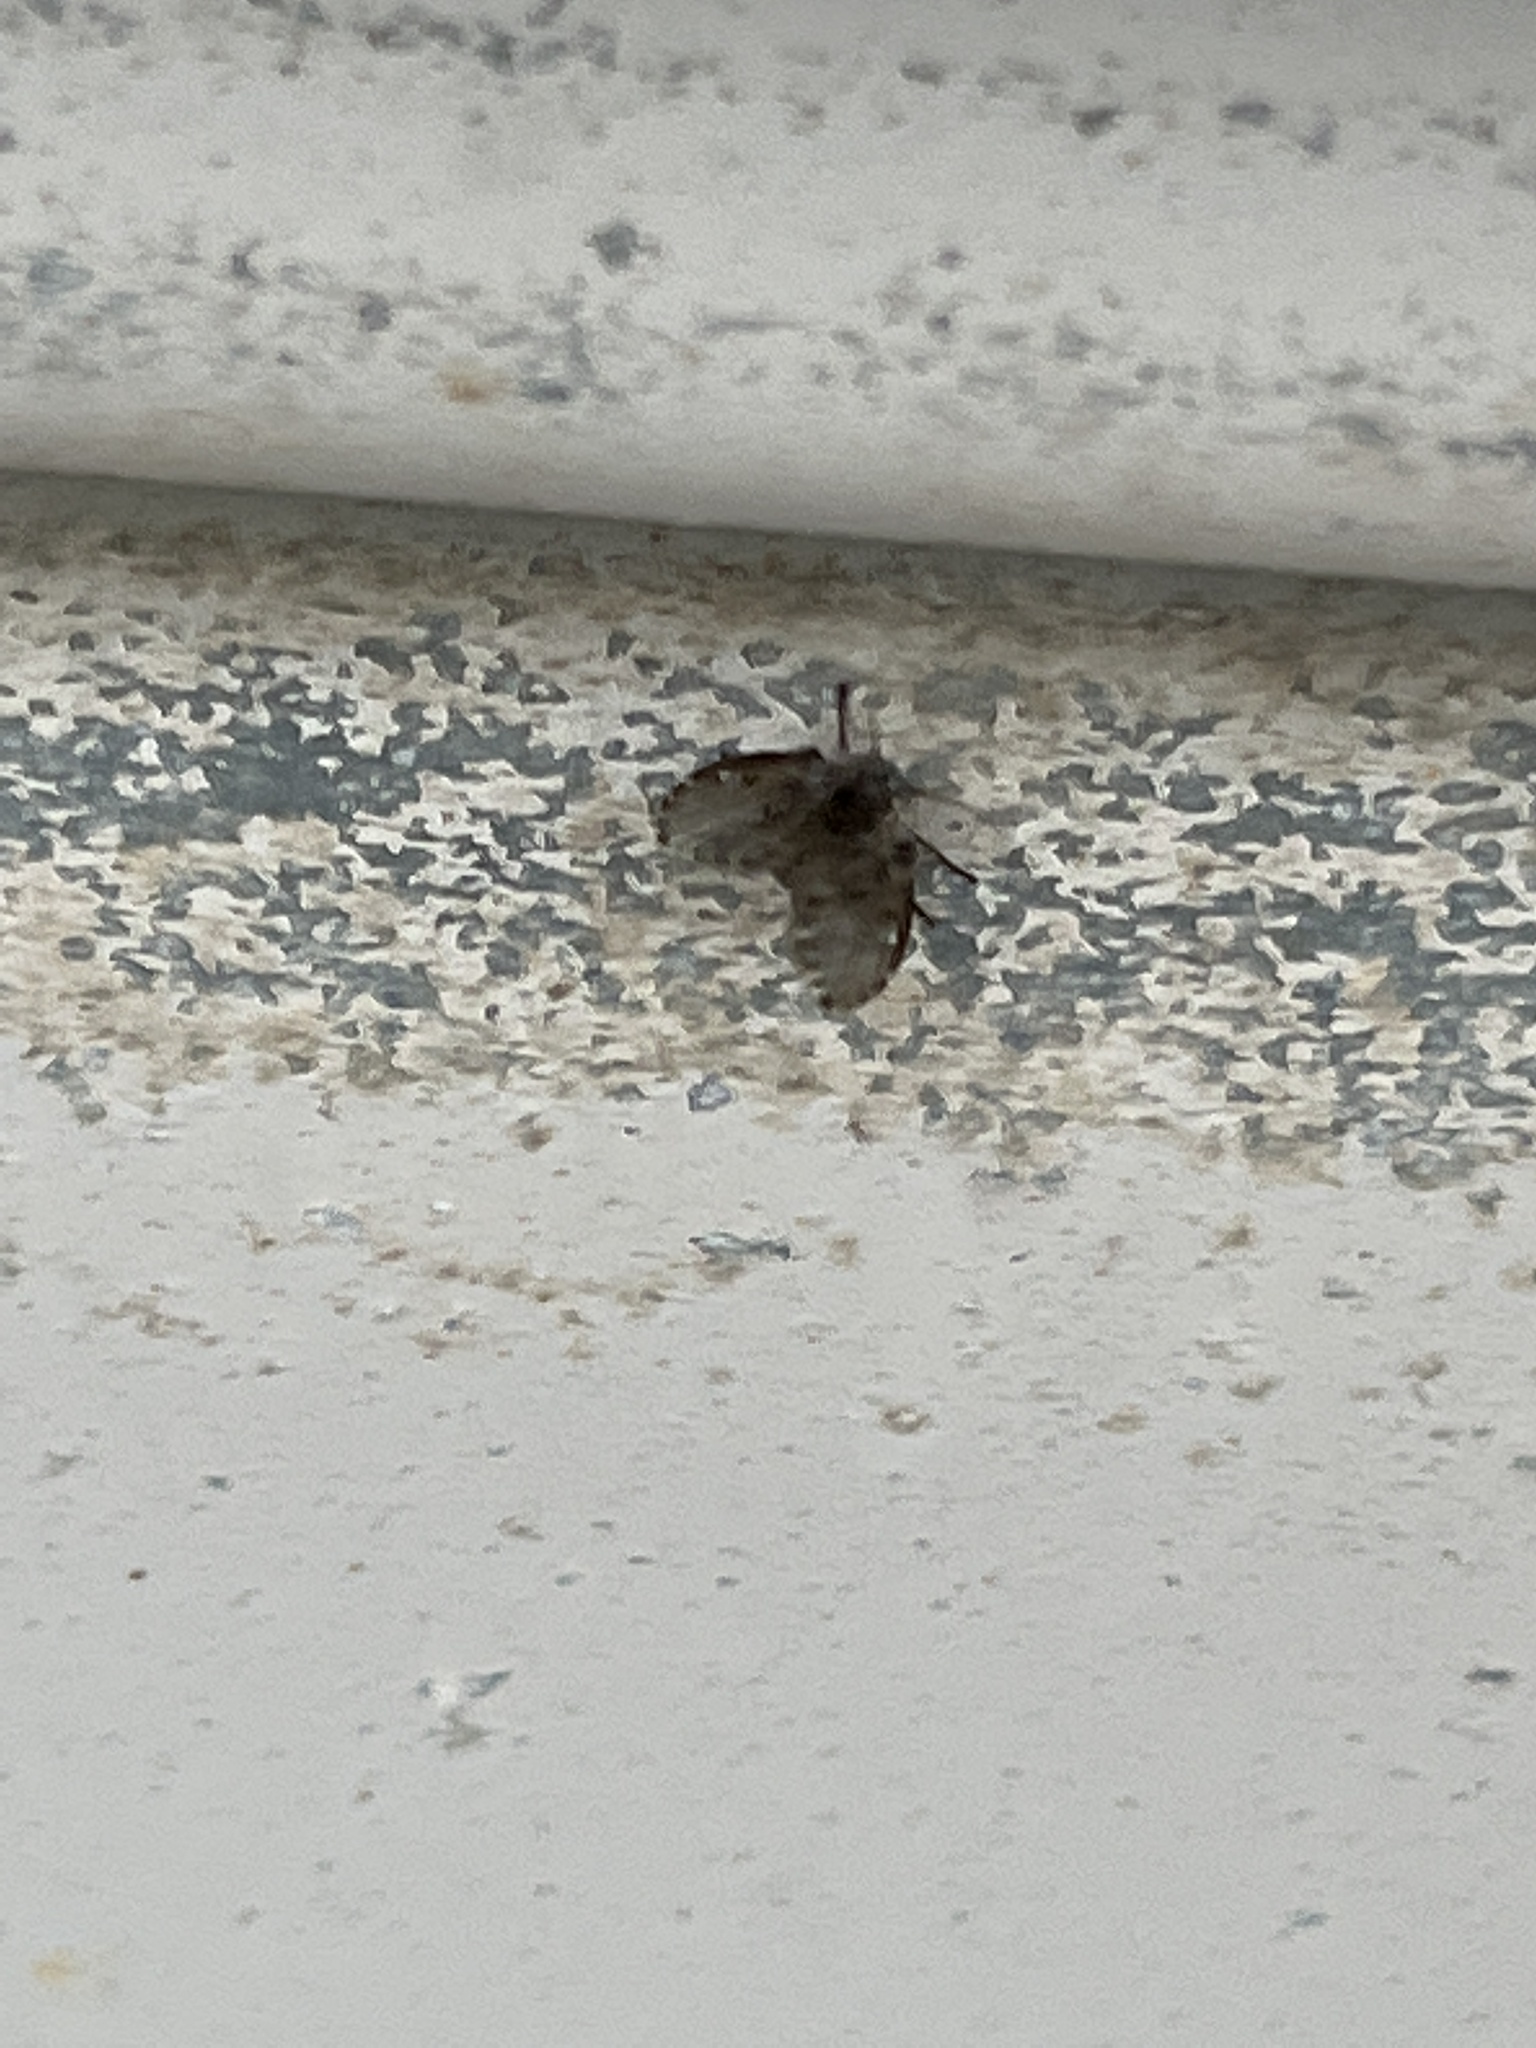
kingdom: Animalia
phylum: Arthropoda
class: Insecta
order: Diptera
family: Psychodidae
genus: Clogmia
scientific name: Clogmia albipunctatus
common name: White-spotted moth fly
